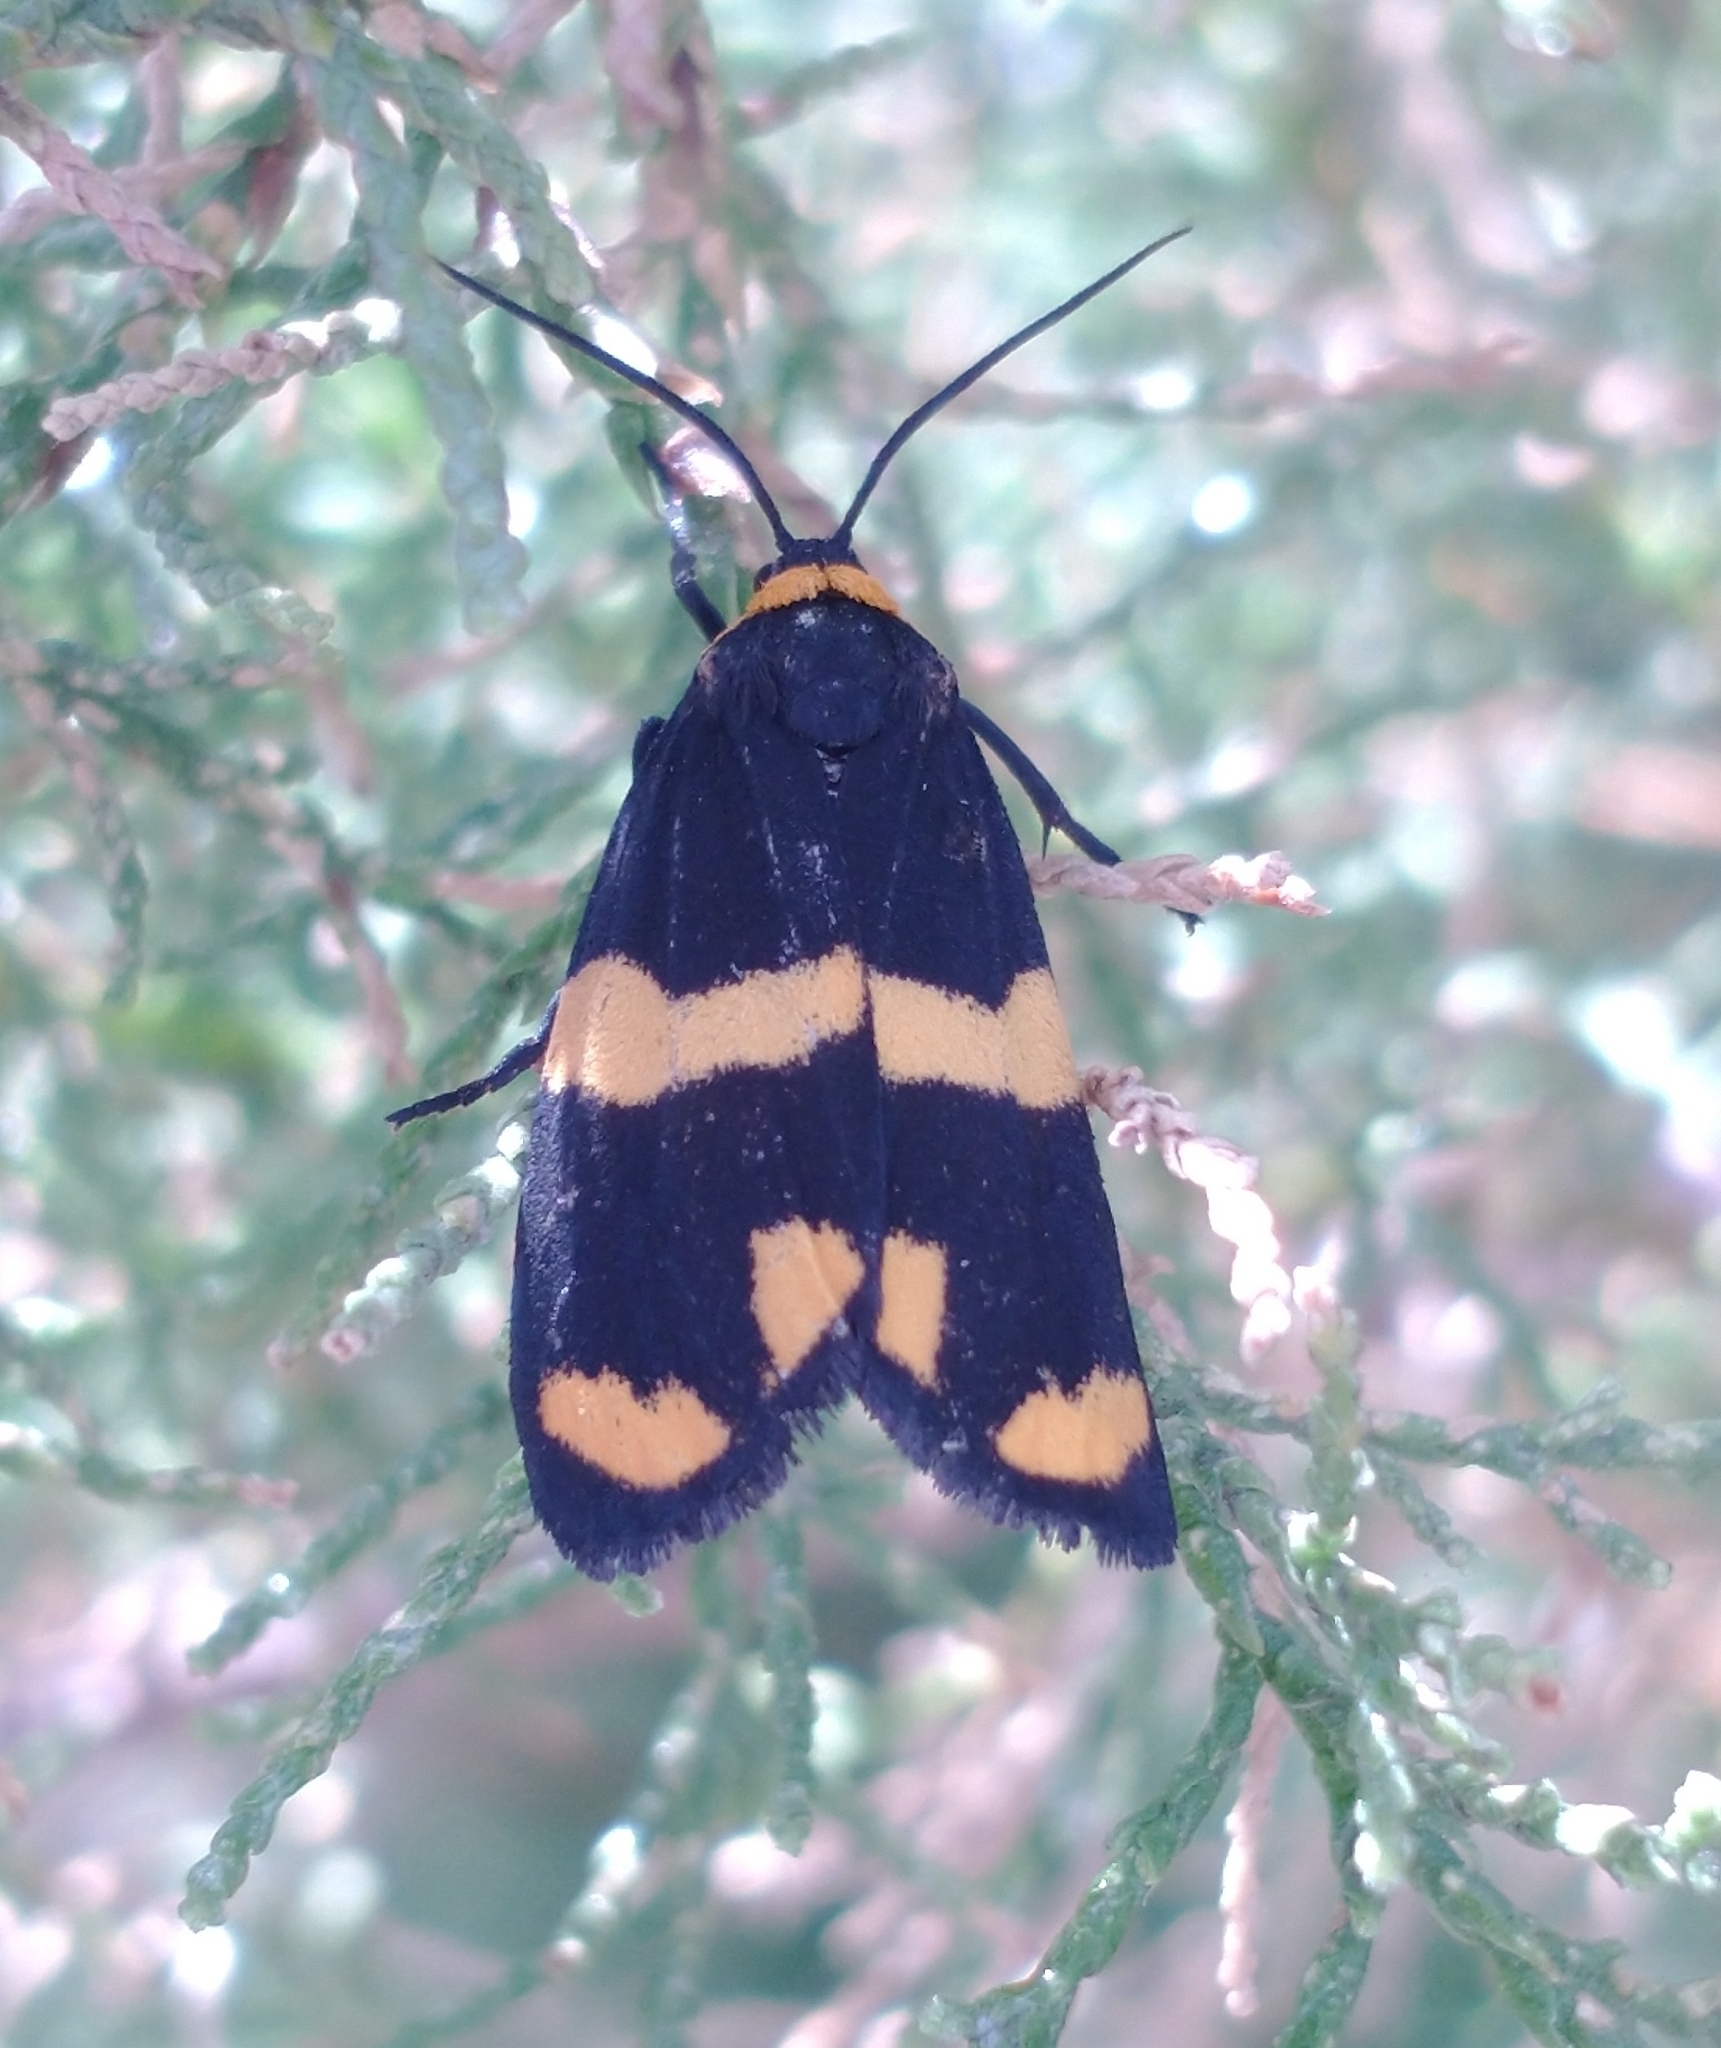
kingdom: Animalia
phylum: Arthropoda
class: Insecta
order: Lepidoptera
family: Erebidae
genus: Eudesmia
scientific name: Eudesmia
